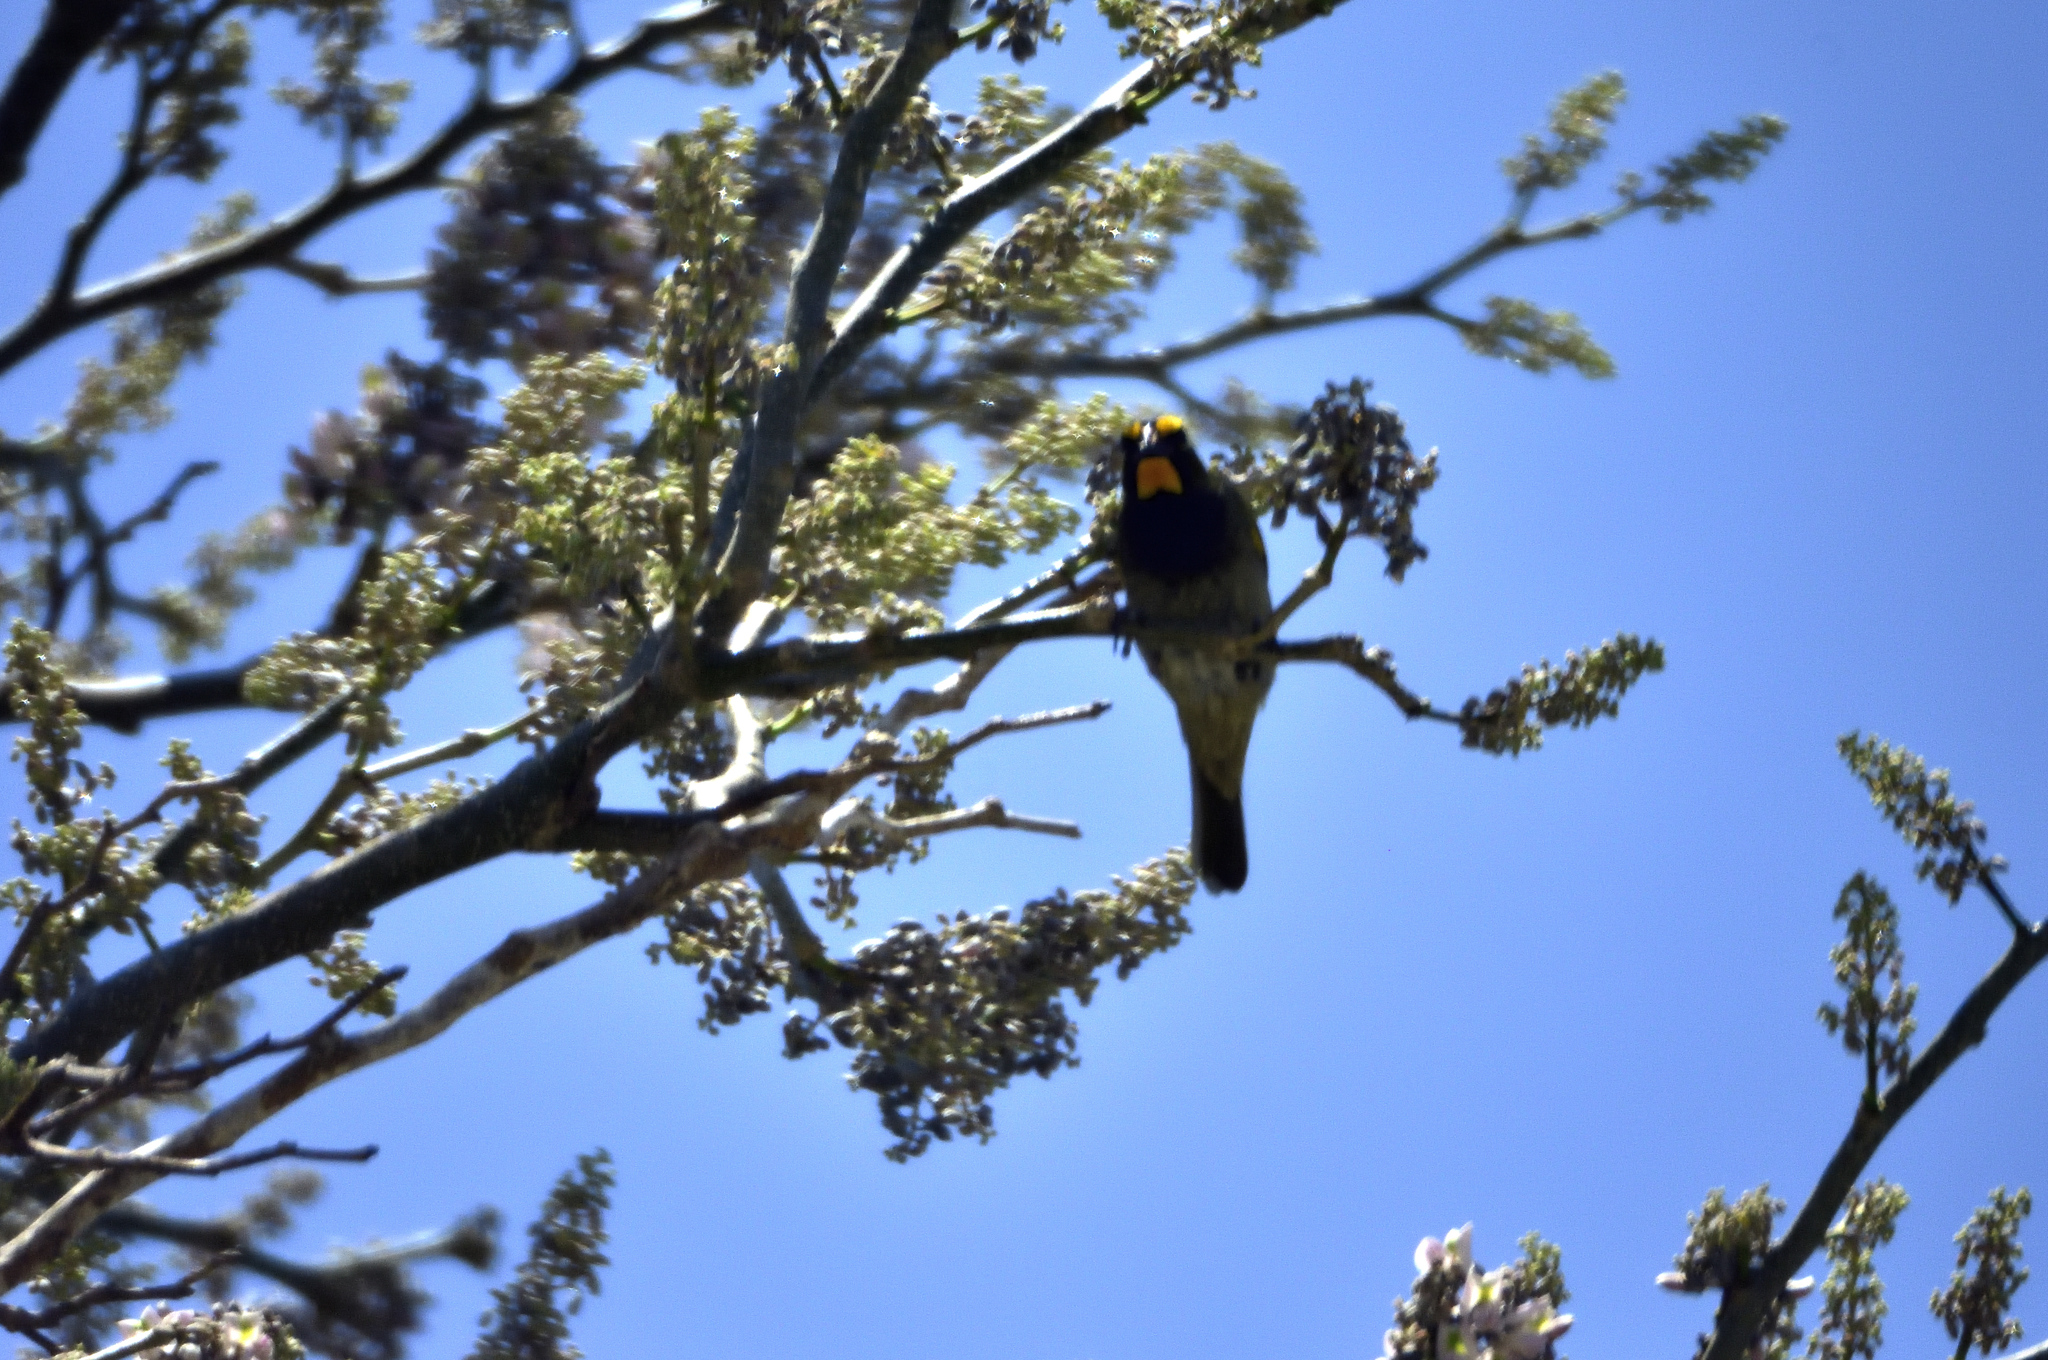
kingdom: Animalia
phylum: Chordata
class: Aves
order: Passeriformes
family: Thraupidae
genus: Tiaris
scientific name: Tiaris olivaceus
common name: Yellow-faced grassquit
